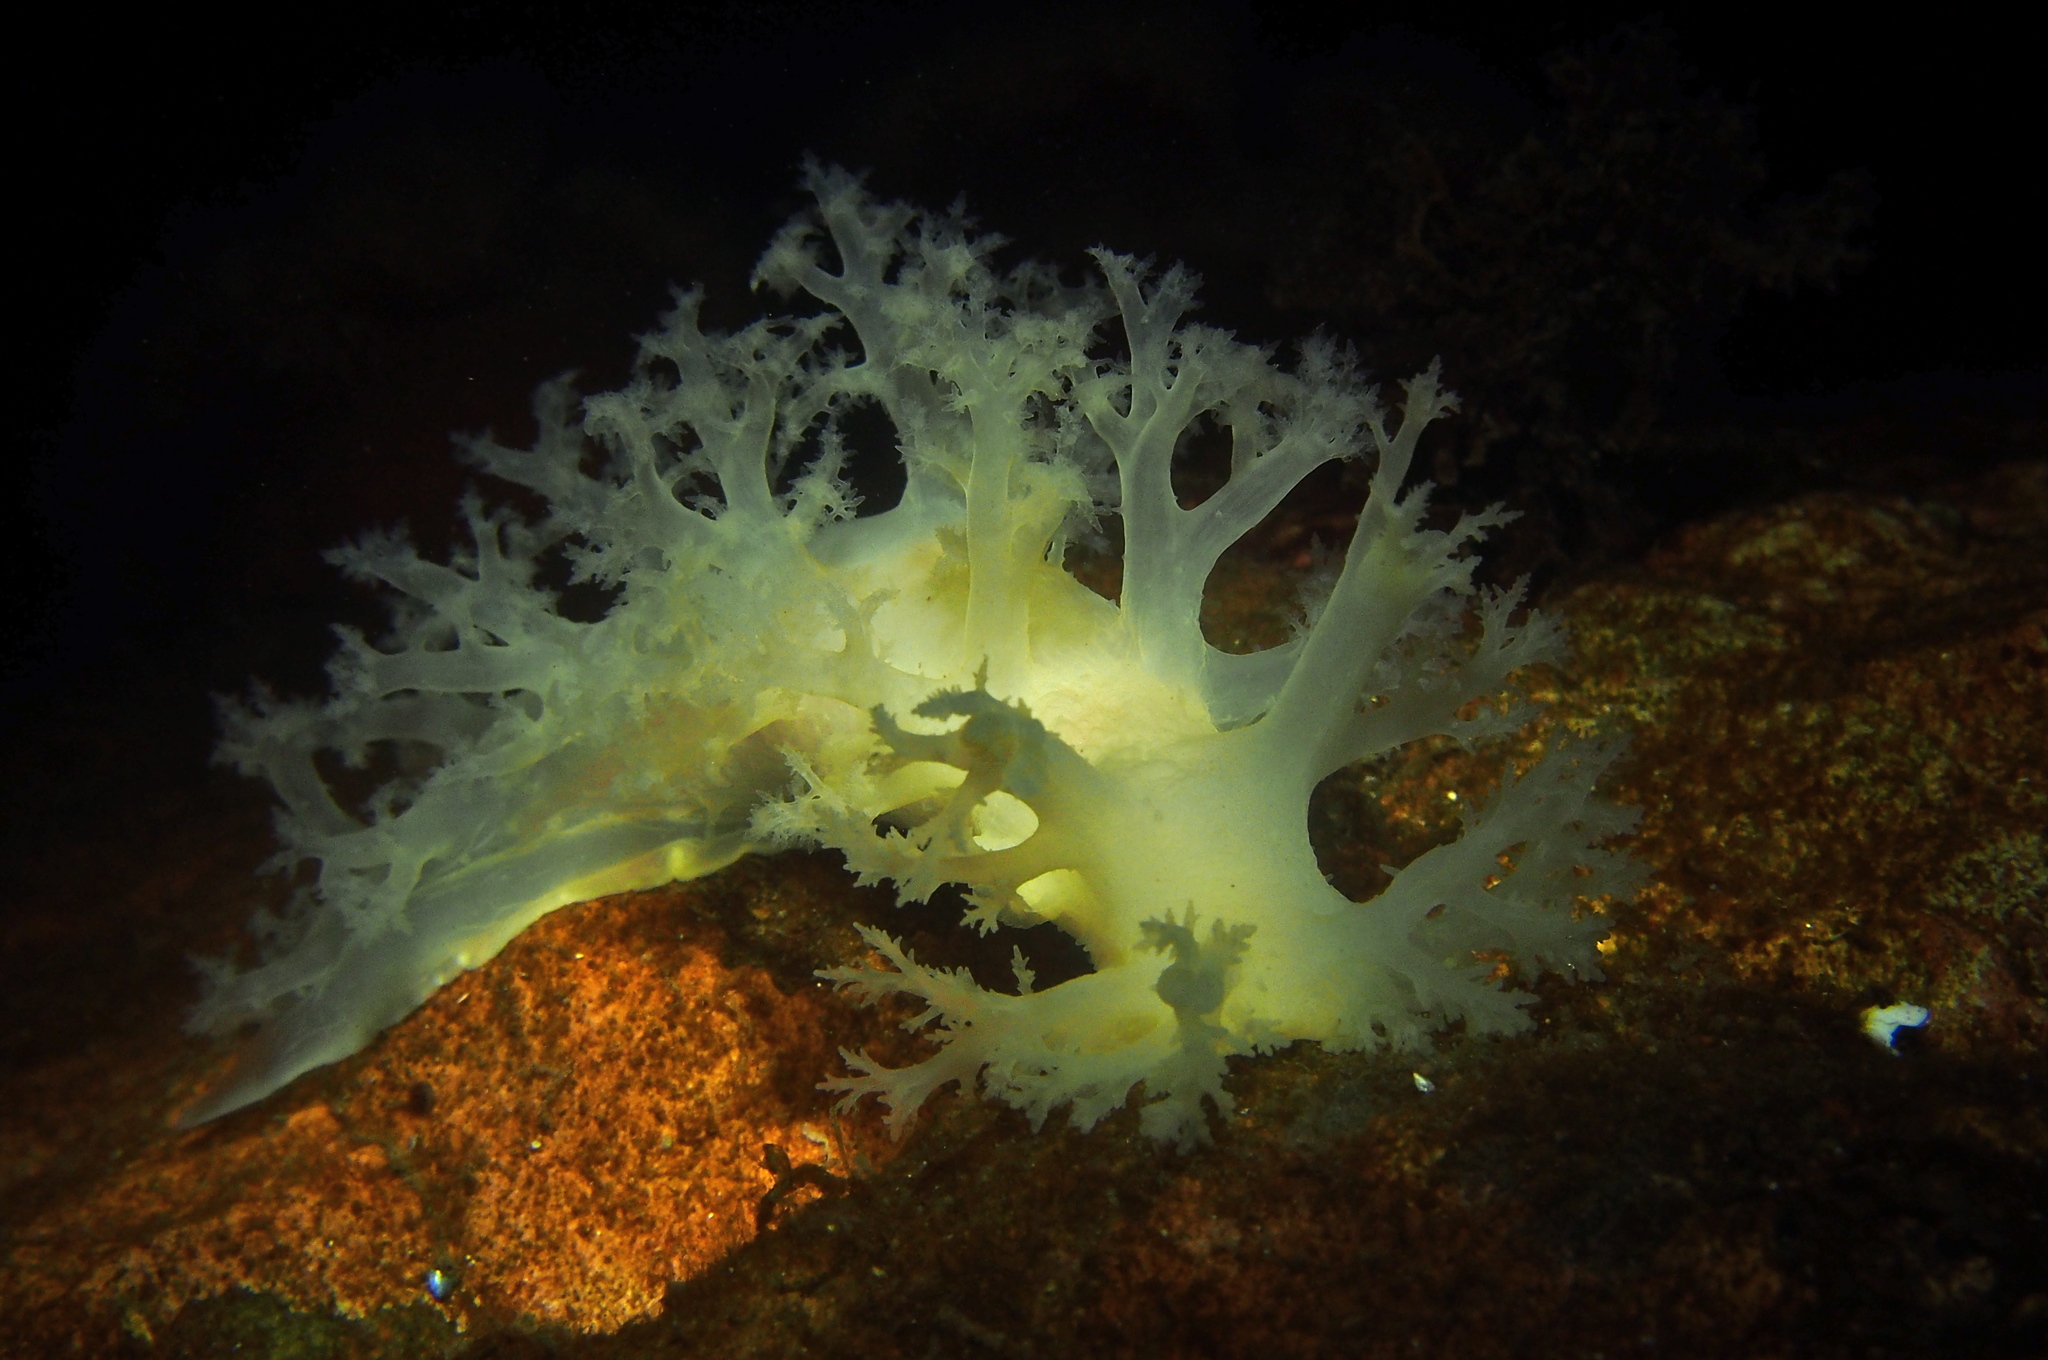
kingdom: Animalia
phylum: Mollusca
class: Gastropoda
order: Nudibranchia
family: Dendronotidae
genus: Dendronotus
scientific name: Dendronotus lacteus
